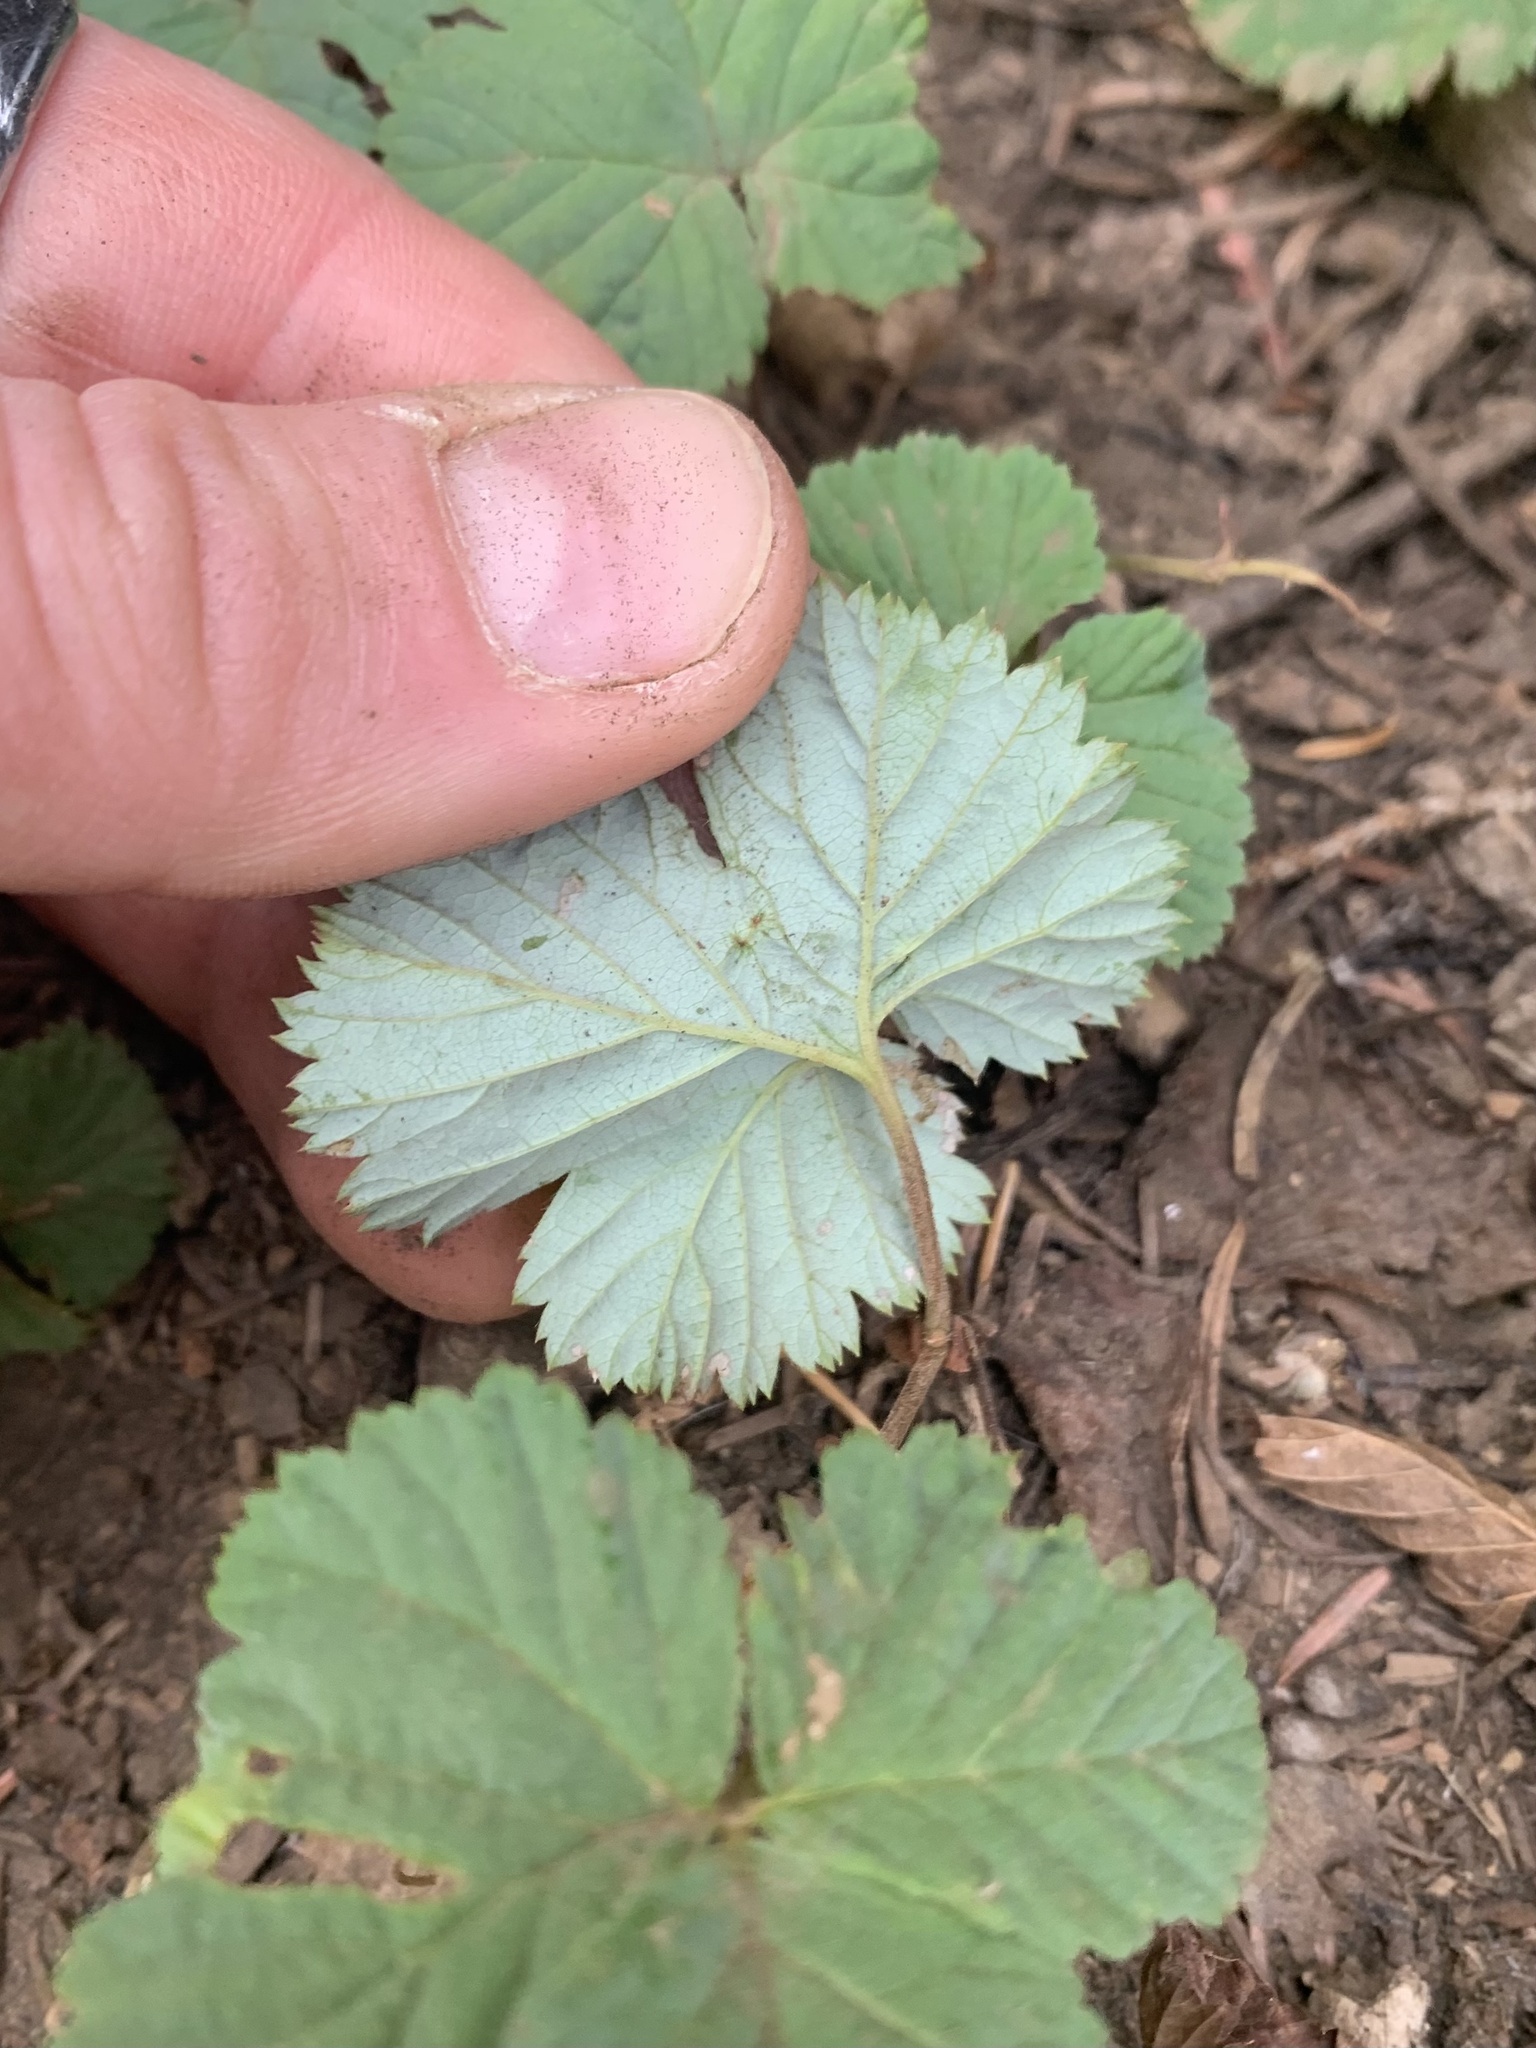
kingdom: Plantae
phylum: Tracheophyta
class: Magnoliopsida
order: Rosales
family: Rosaceae
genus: Rubus
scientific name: Rubus lasiococcus
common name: Dwarf bramble
